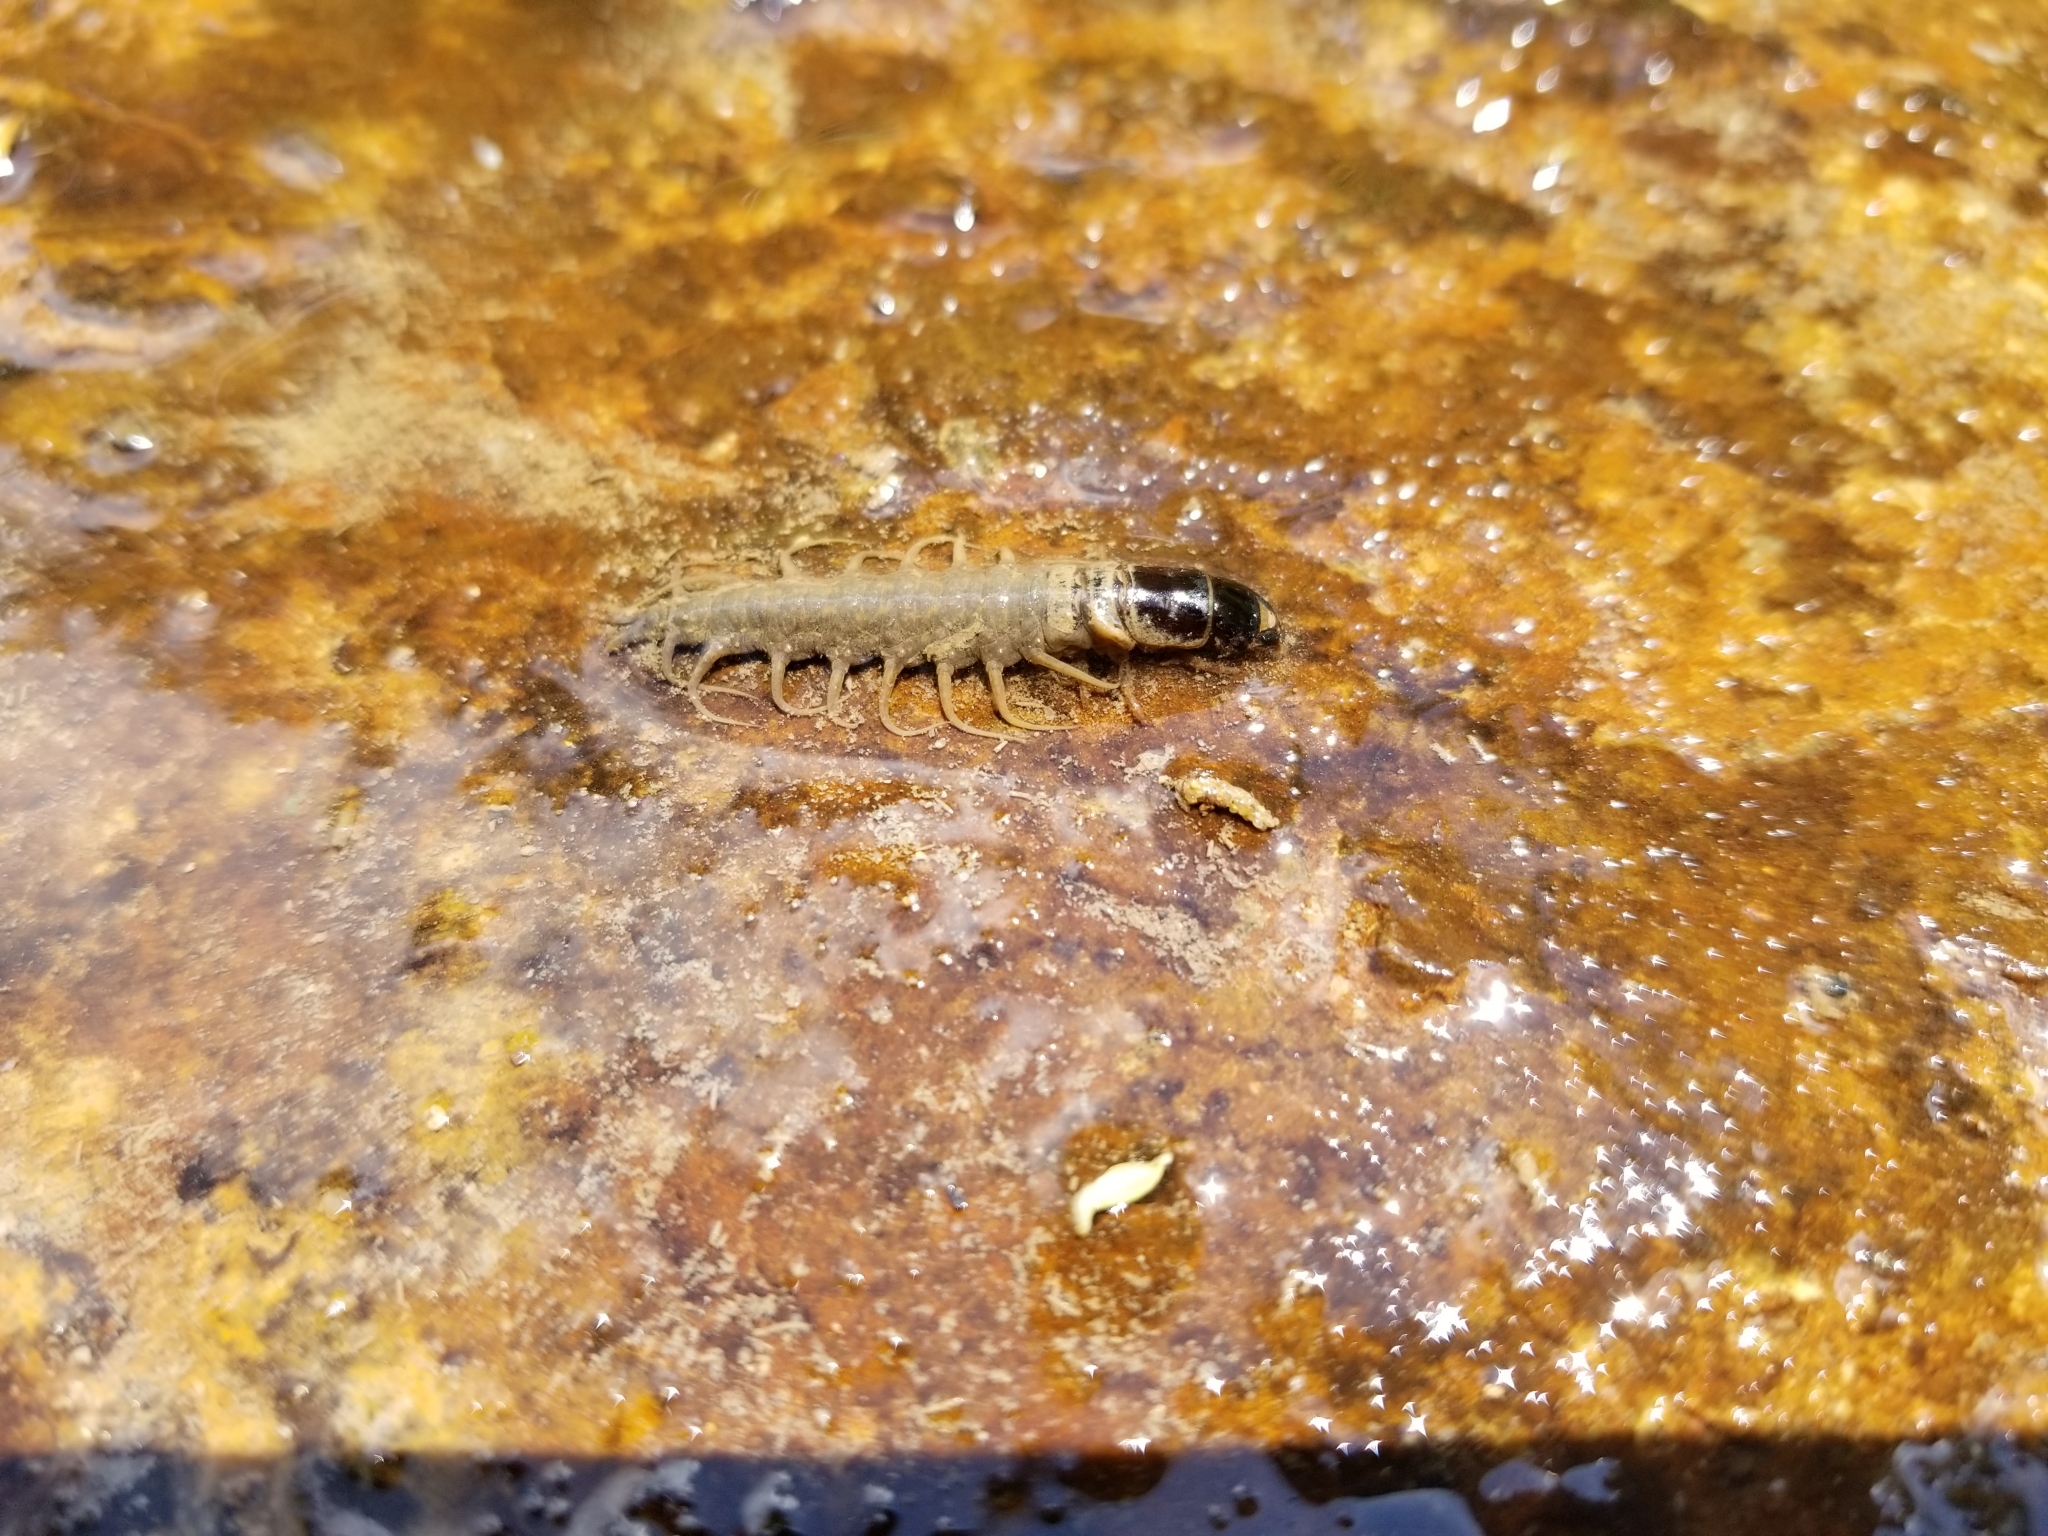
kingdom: Animalia
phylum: Arthropoda
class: Insecta
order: Megaloptera
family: Corydalidae
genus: Nigronia
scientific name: Nigronia serricornis
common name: Serrate dark fishfly
